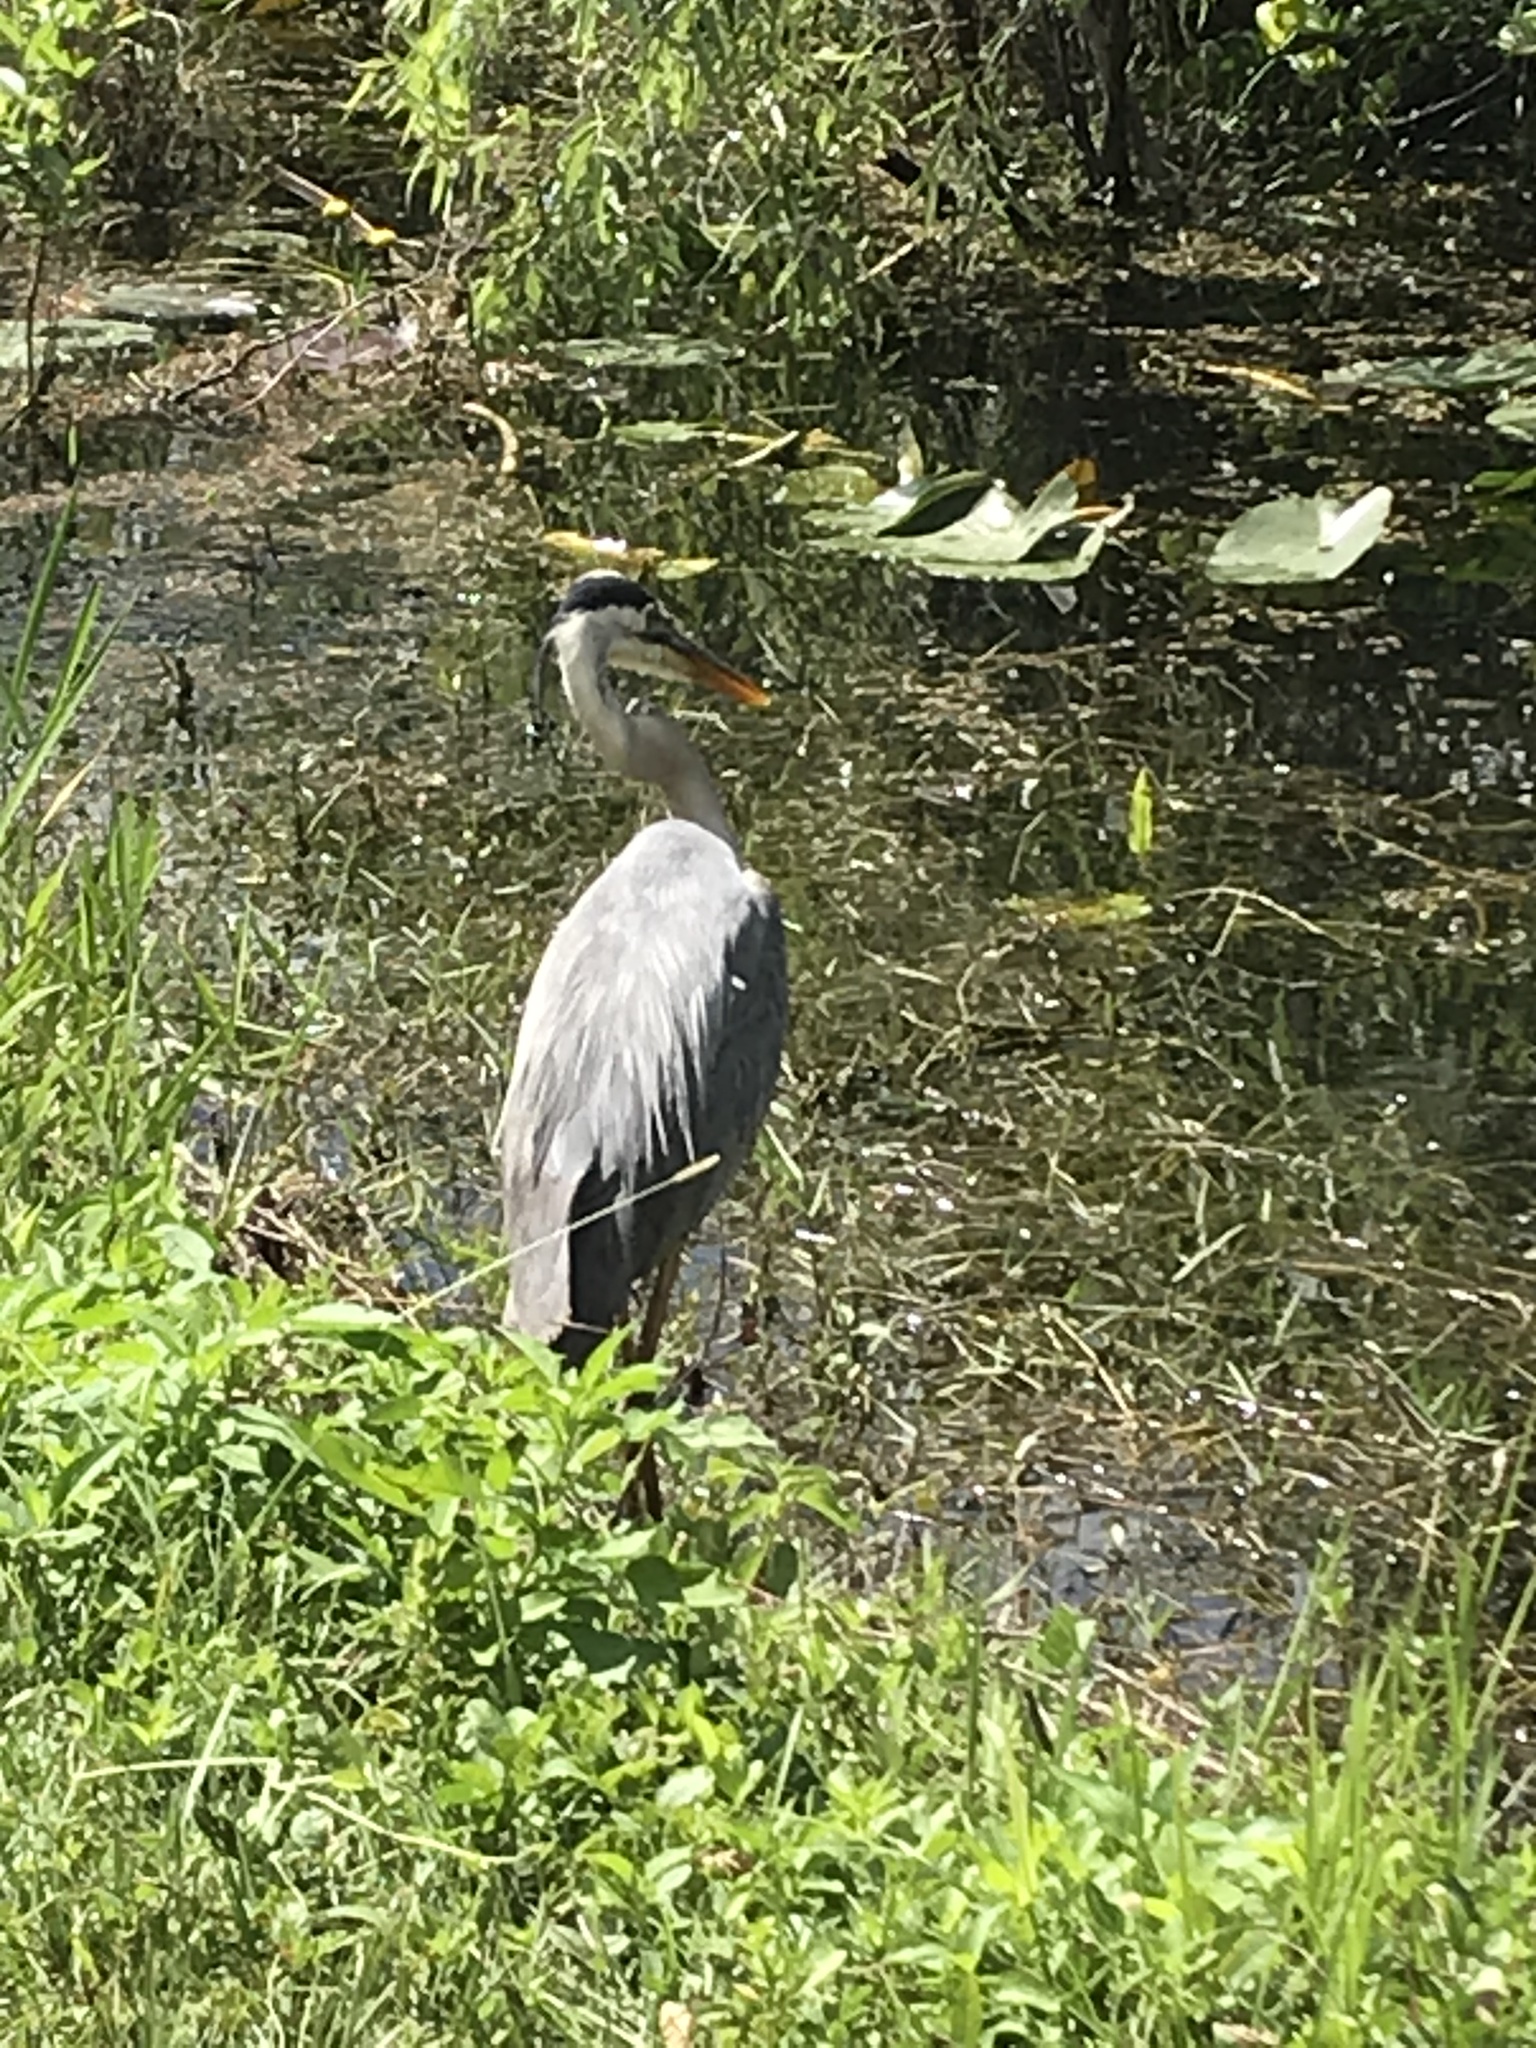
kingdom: Animalia
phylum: Chordata
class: Aves
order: Pelecaniformes
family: Ardeidae
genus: Ardea
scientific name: Ardea herodias
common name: Great blue heron
